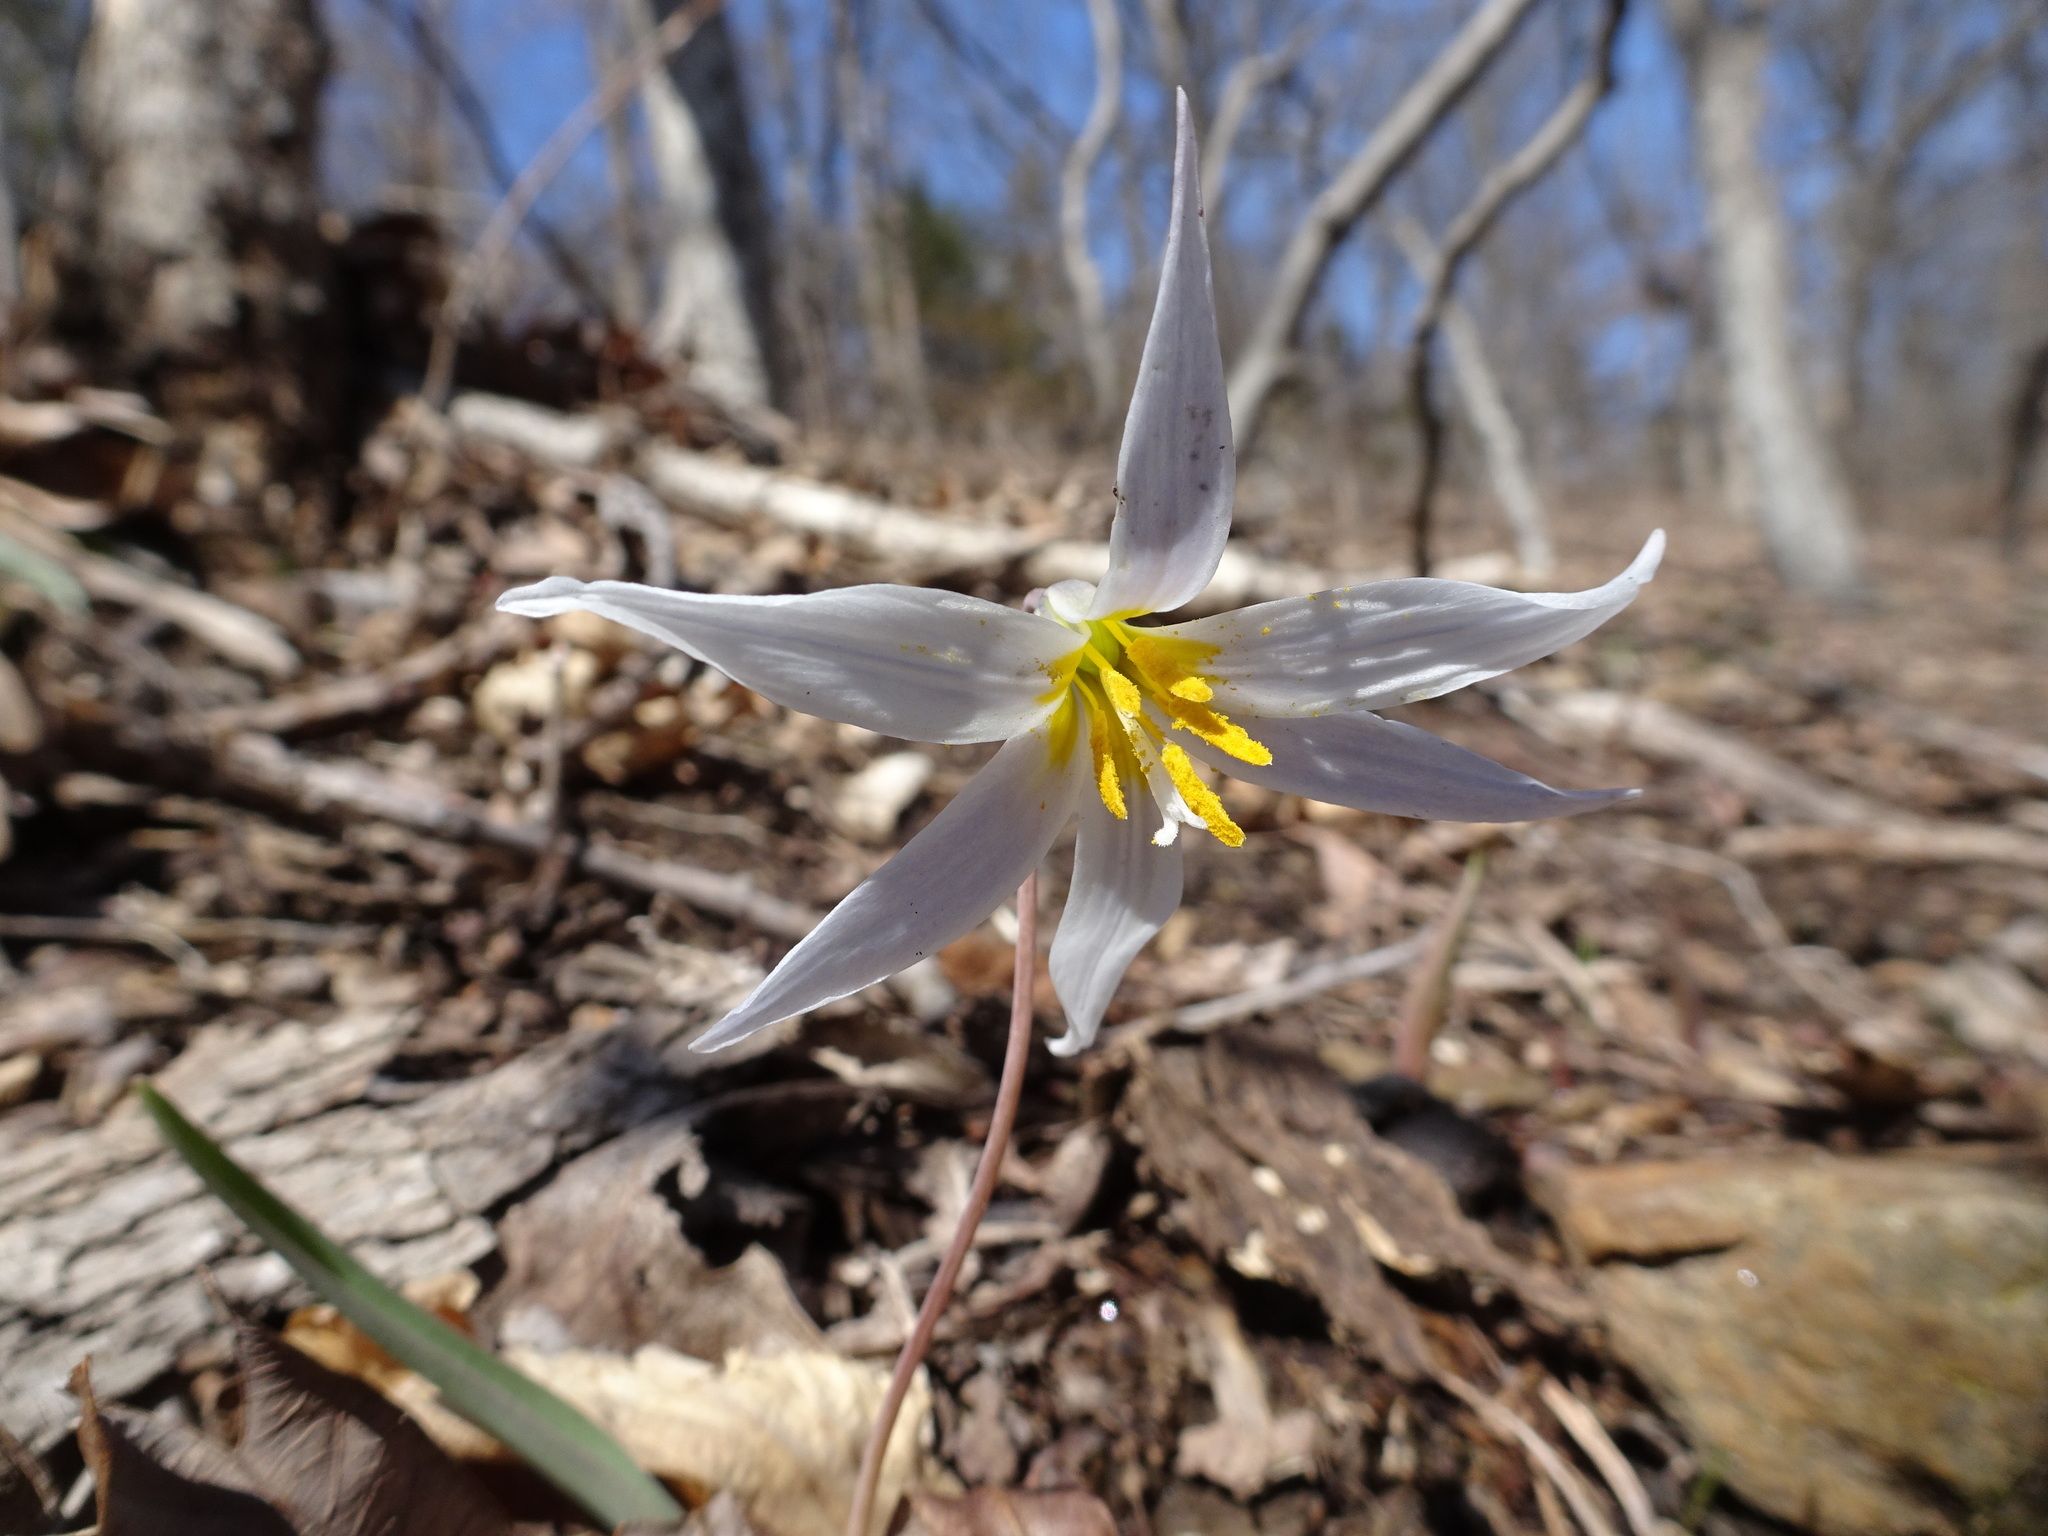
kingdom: Plantae
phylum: Tracheophyta
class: Liliopsida
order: Liliales
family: Liliaceae
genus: Erythronium
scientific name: Erythronium mesochoreum
